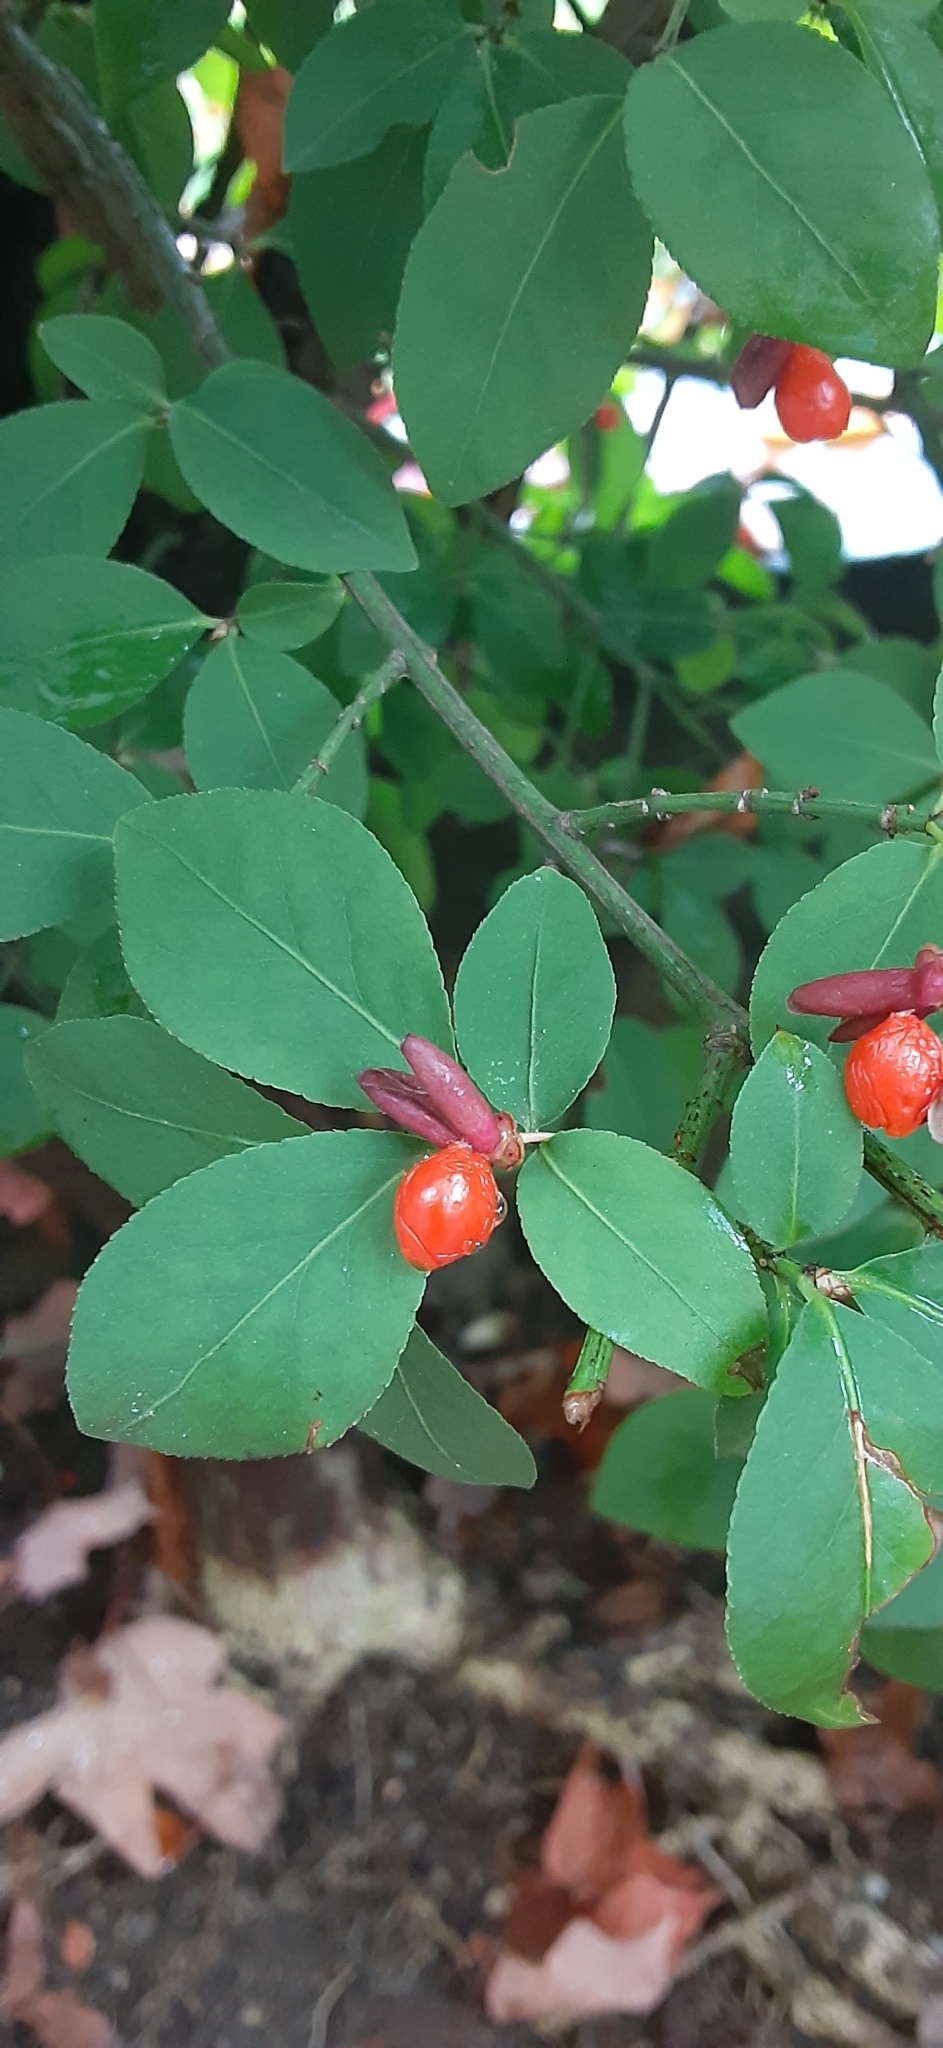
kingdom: Plantae
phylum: Tracheophyta
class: Magnoliopsida
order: Celastrales
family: Celastraceae
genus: Euonymus
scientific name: Euonymus alatus
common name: Winged euonymus
